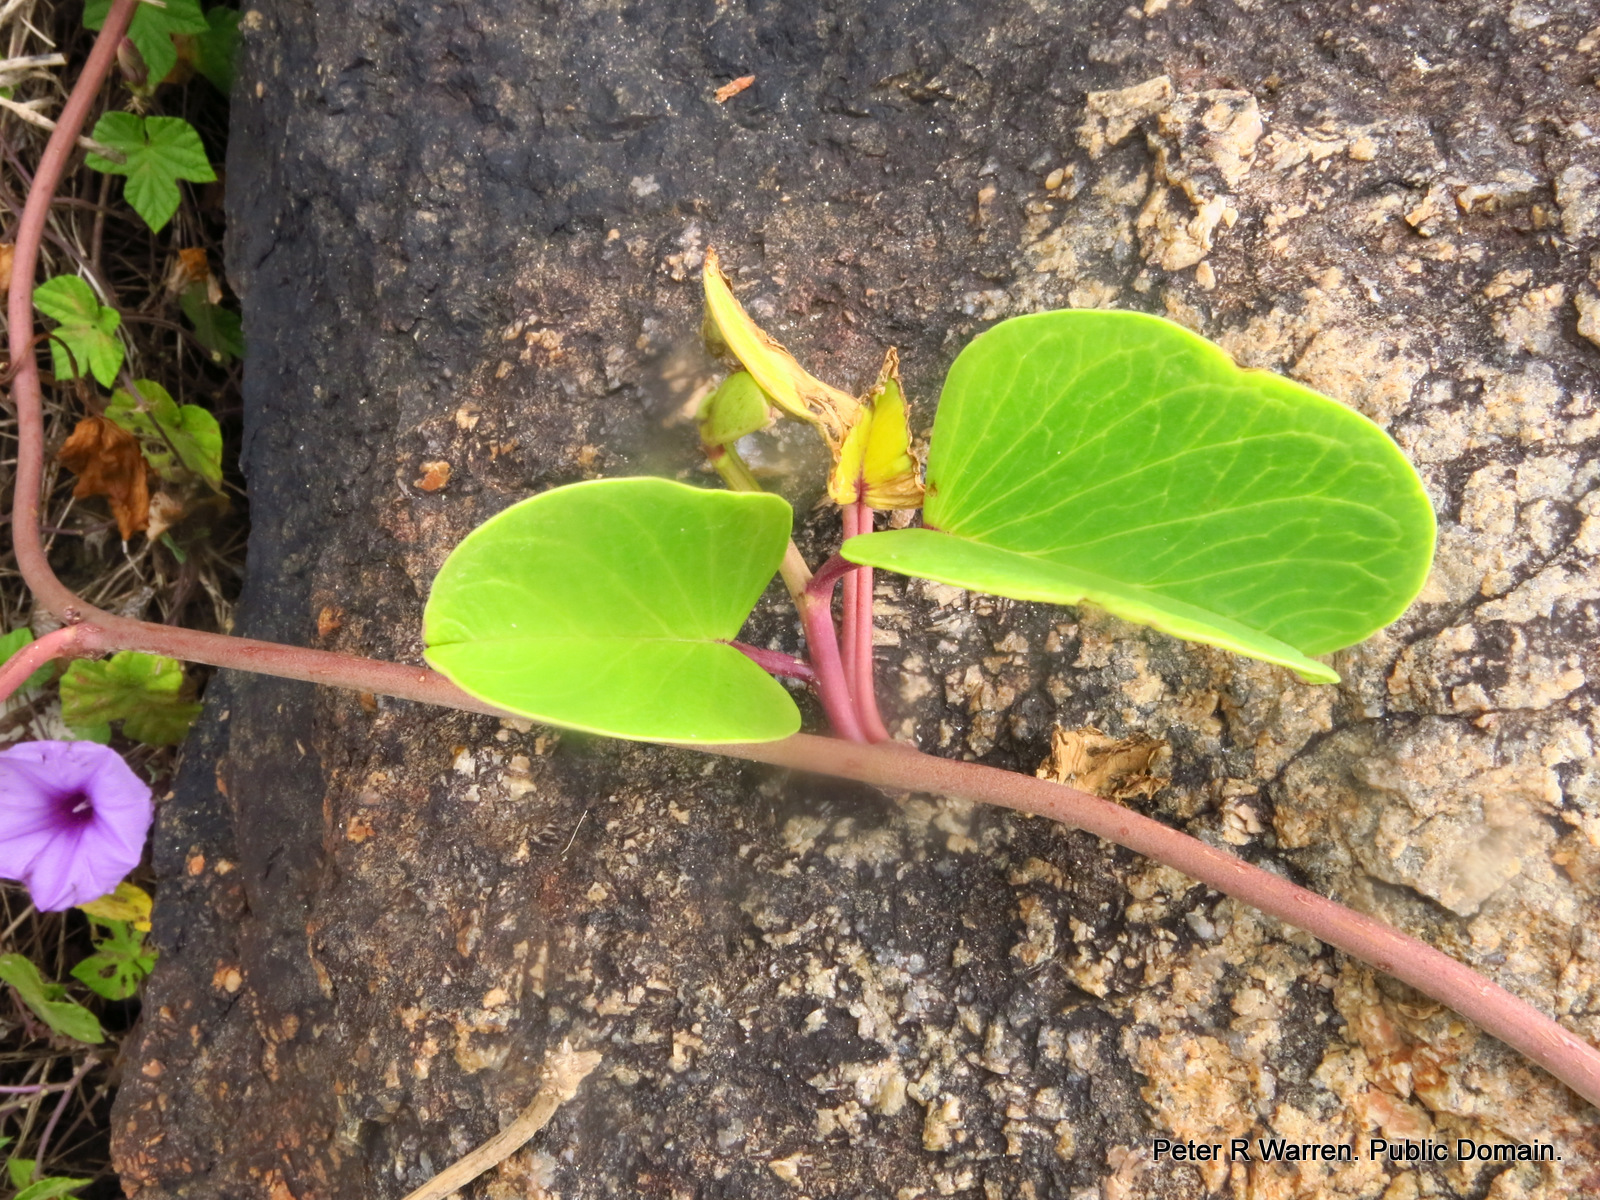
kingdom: Plantae
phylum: Tracheophyta
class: Magnoliopsida
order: Solanales
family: Convolvulaceae
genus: Ipomoea
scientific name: Ipomoea pes-caprae
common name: Beach morning glory
